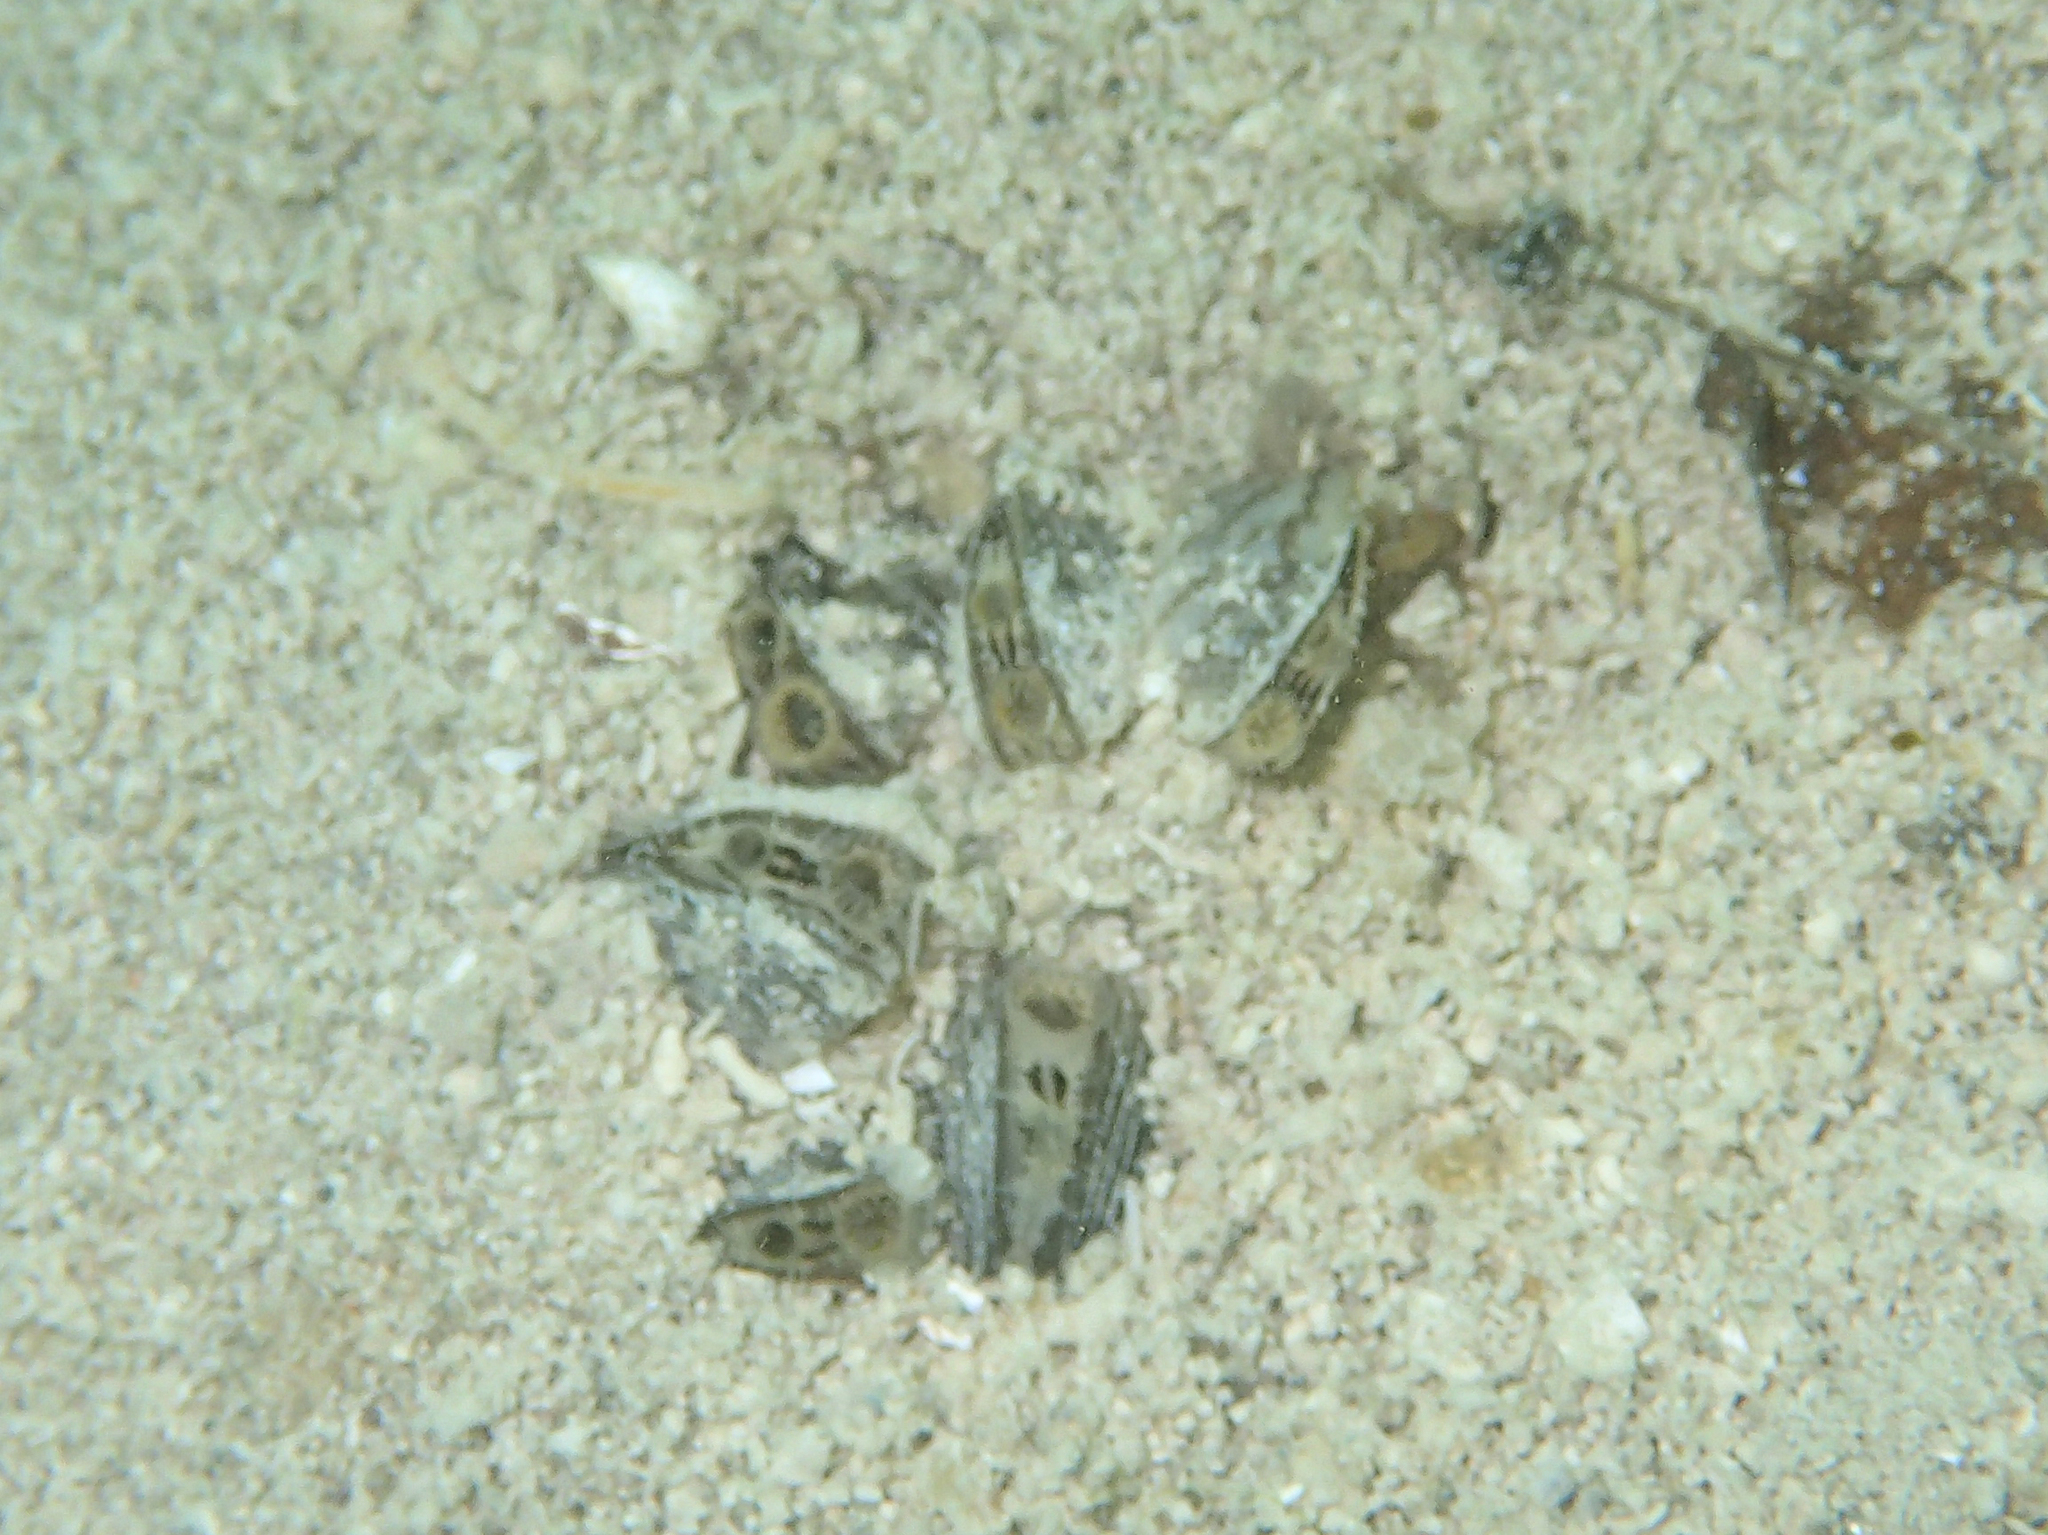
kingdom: Animalia
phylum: Mollusca
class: Bivalvia
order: Myida
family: Dreissenidae
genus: Dreissena
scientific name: Dreissena polymorpha
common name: Zebra mussel
